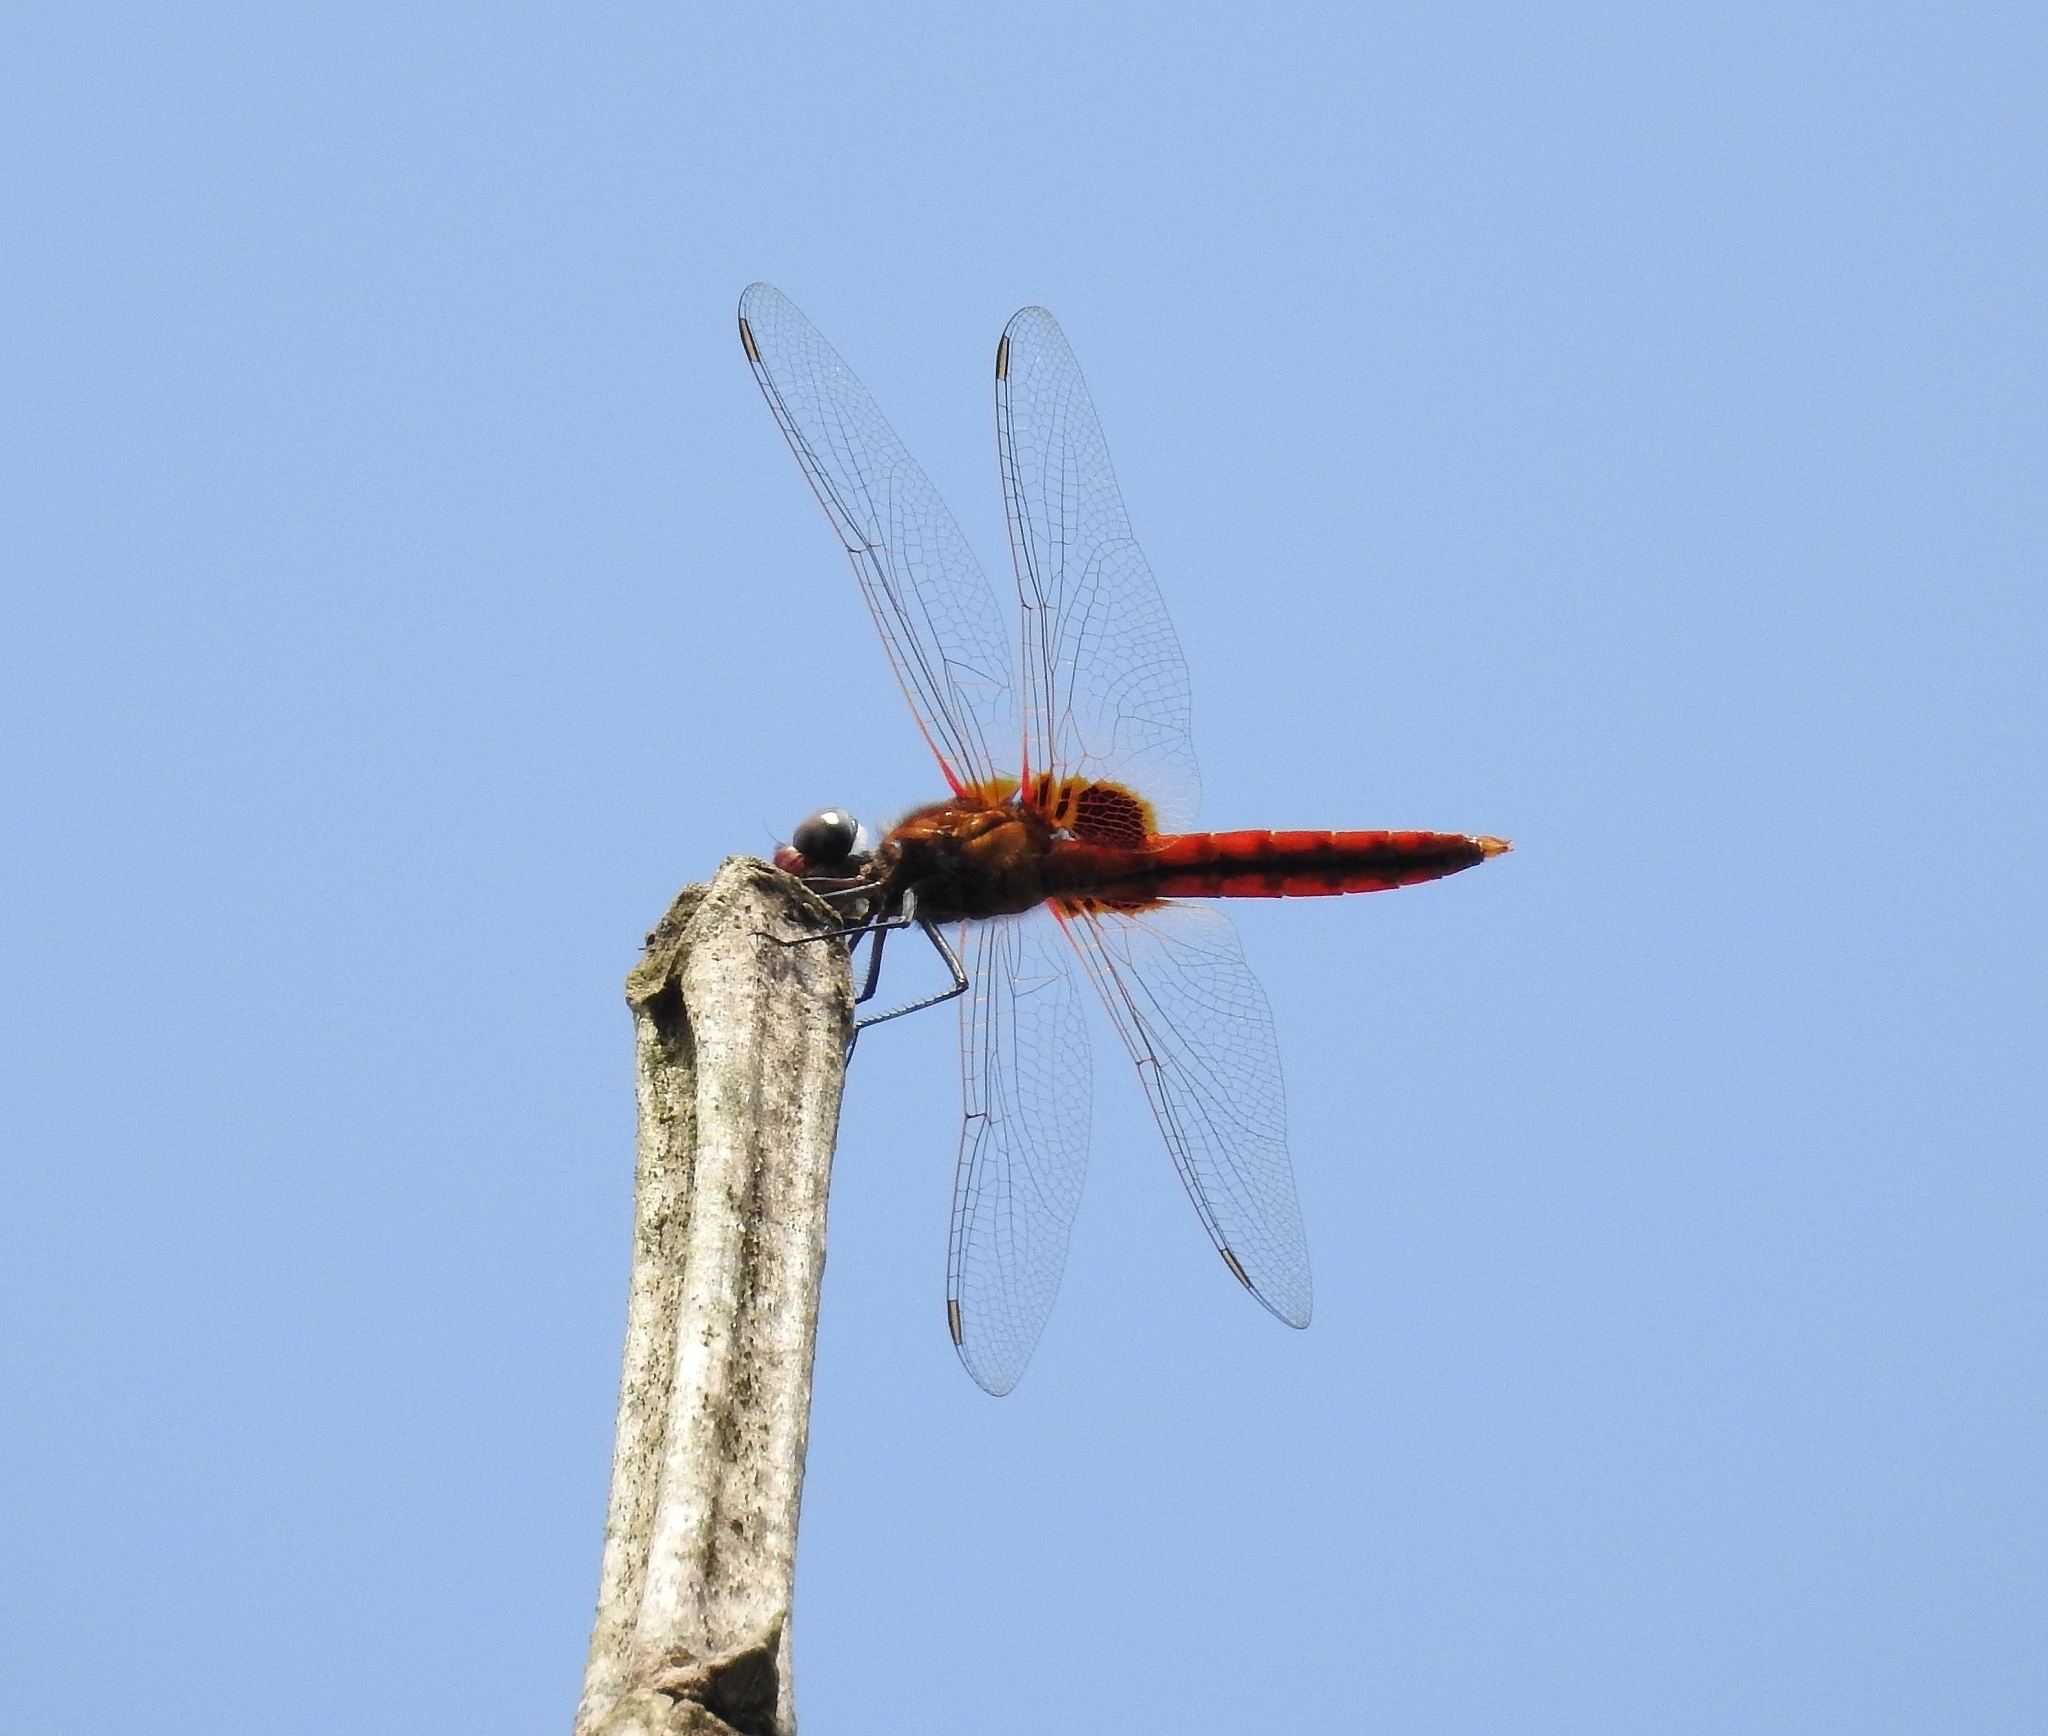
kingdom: Animalia
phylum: Arthropoda
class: Insecta
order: Odonata
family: Libellulidae
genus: Urothemis
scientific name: Urothemis signata
